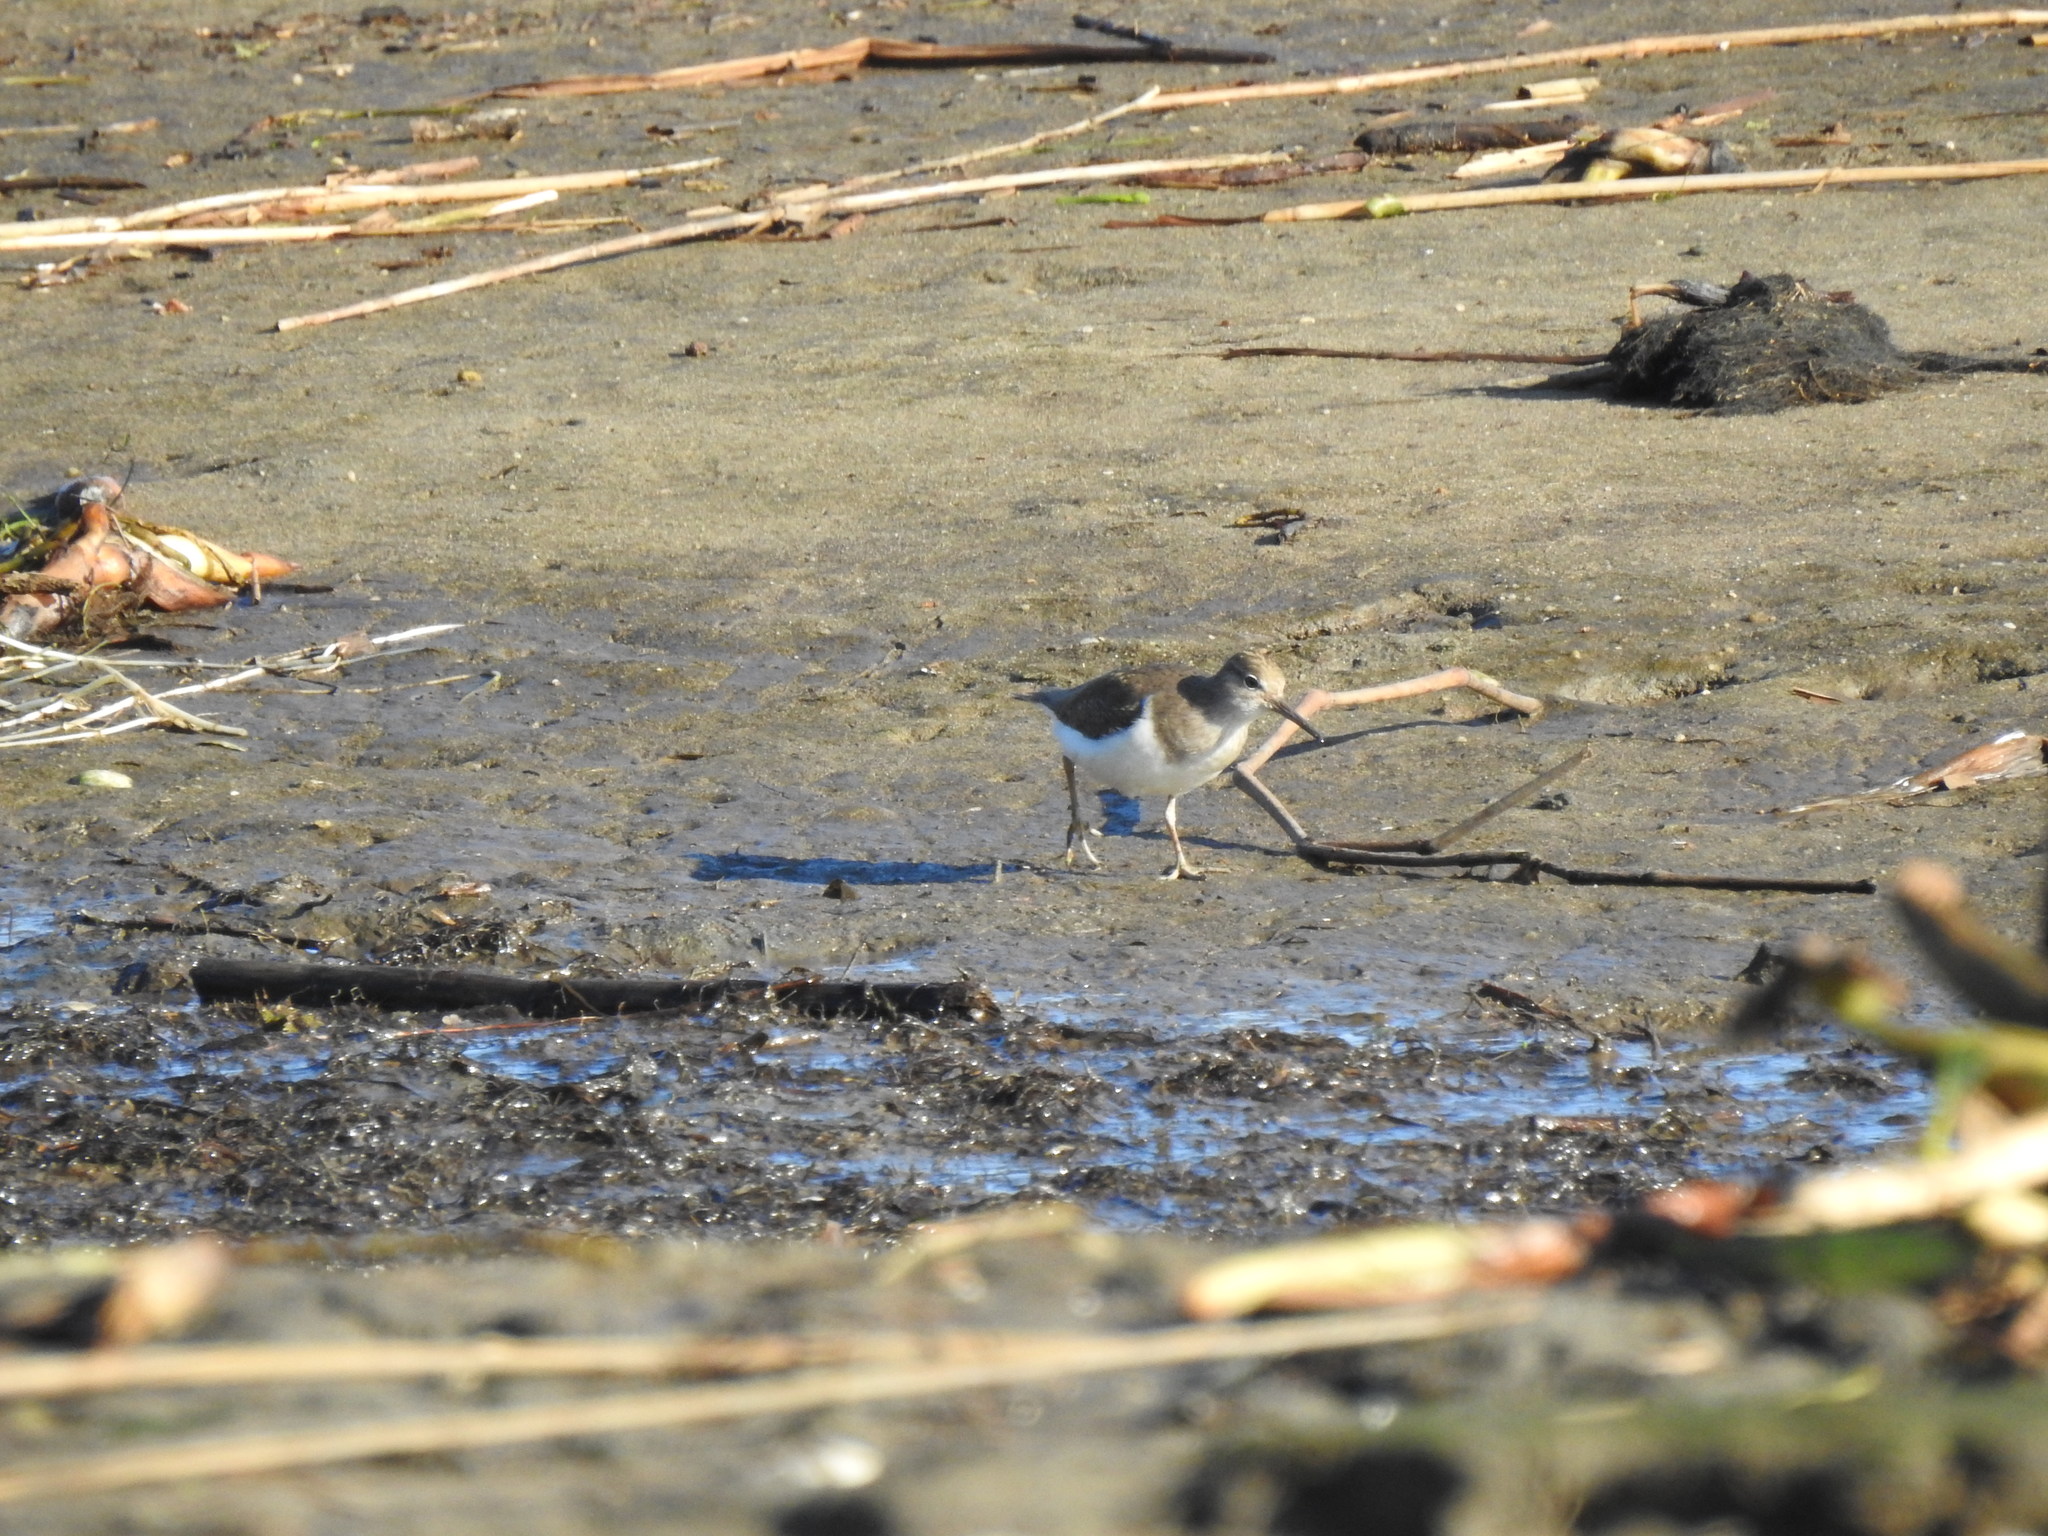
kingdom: Animalia
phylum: Chordata
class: Aves
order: Charadriiformes
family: Scolopacidae
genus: Actitis
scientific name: Actitis hypoleucos
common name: Common sandpiper
